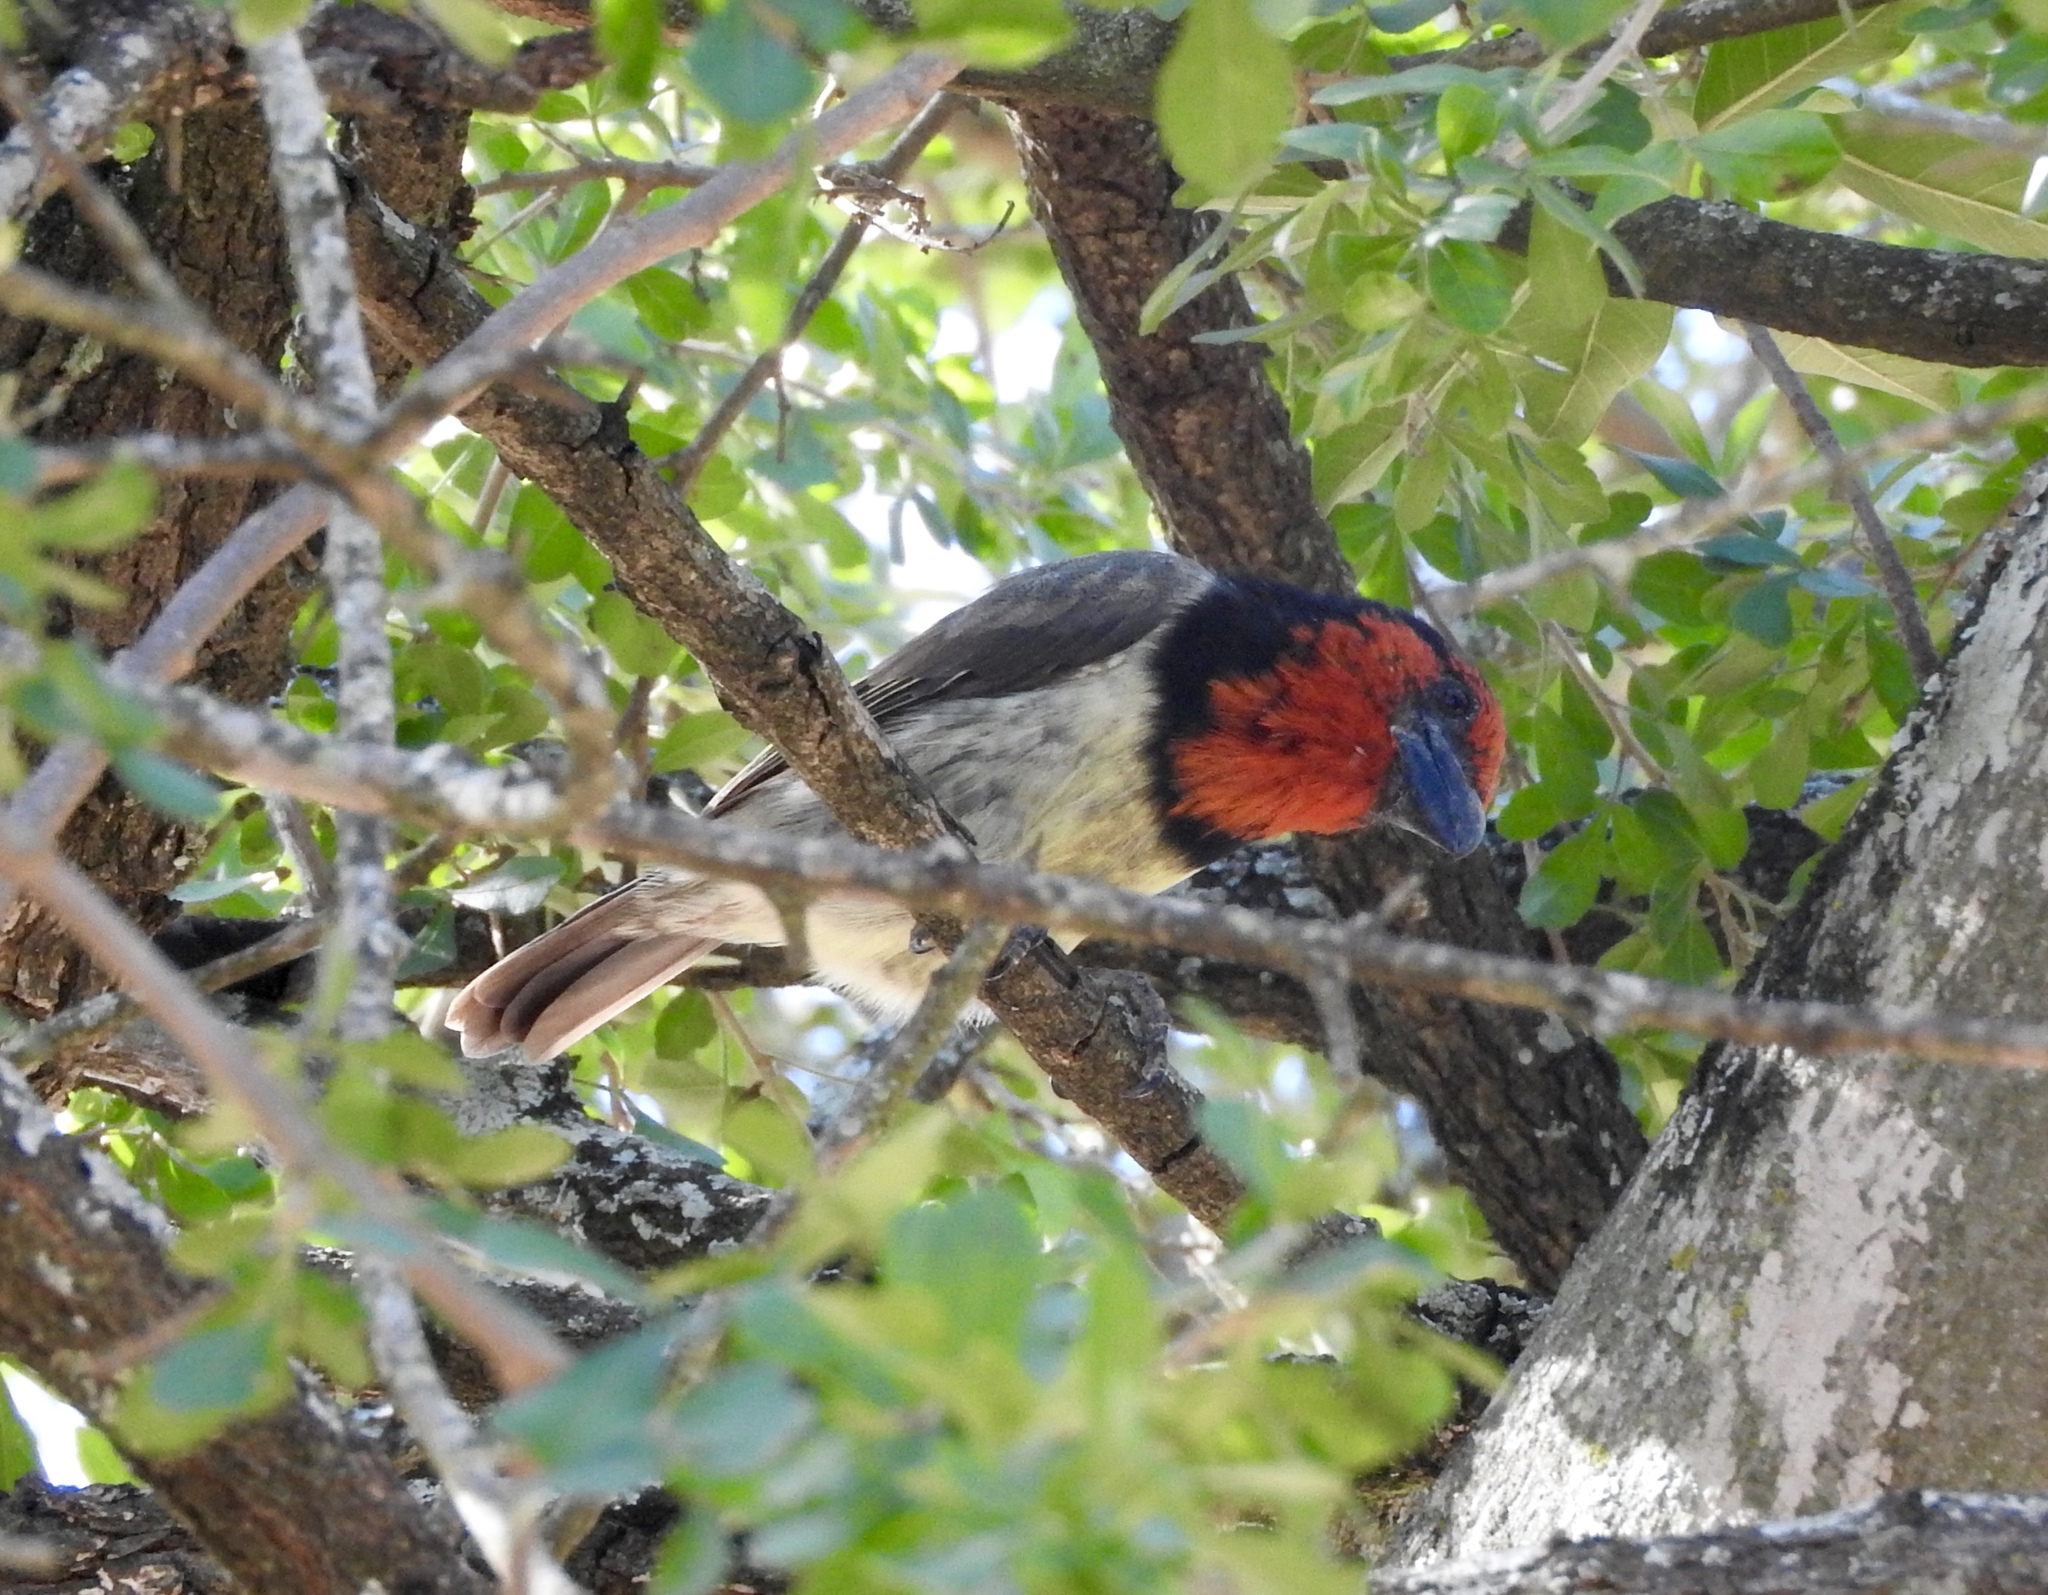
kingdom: Animalia
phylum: Chordata
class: Aves
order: Piciformes
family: Lybiidae
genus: Lybius
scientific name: Lybius torquatus
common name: Black-collared barbet
